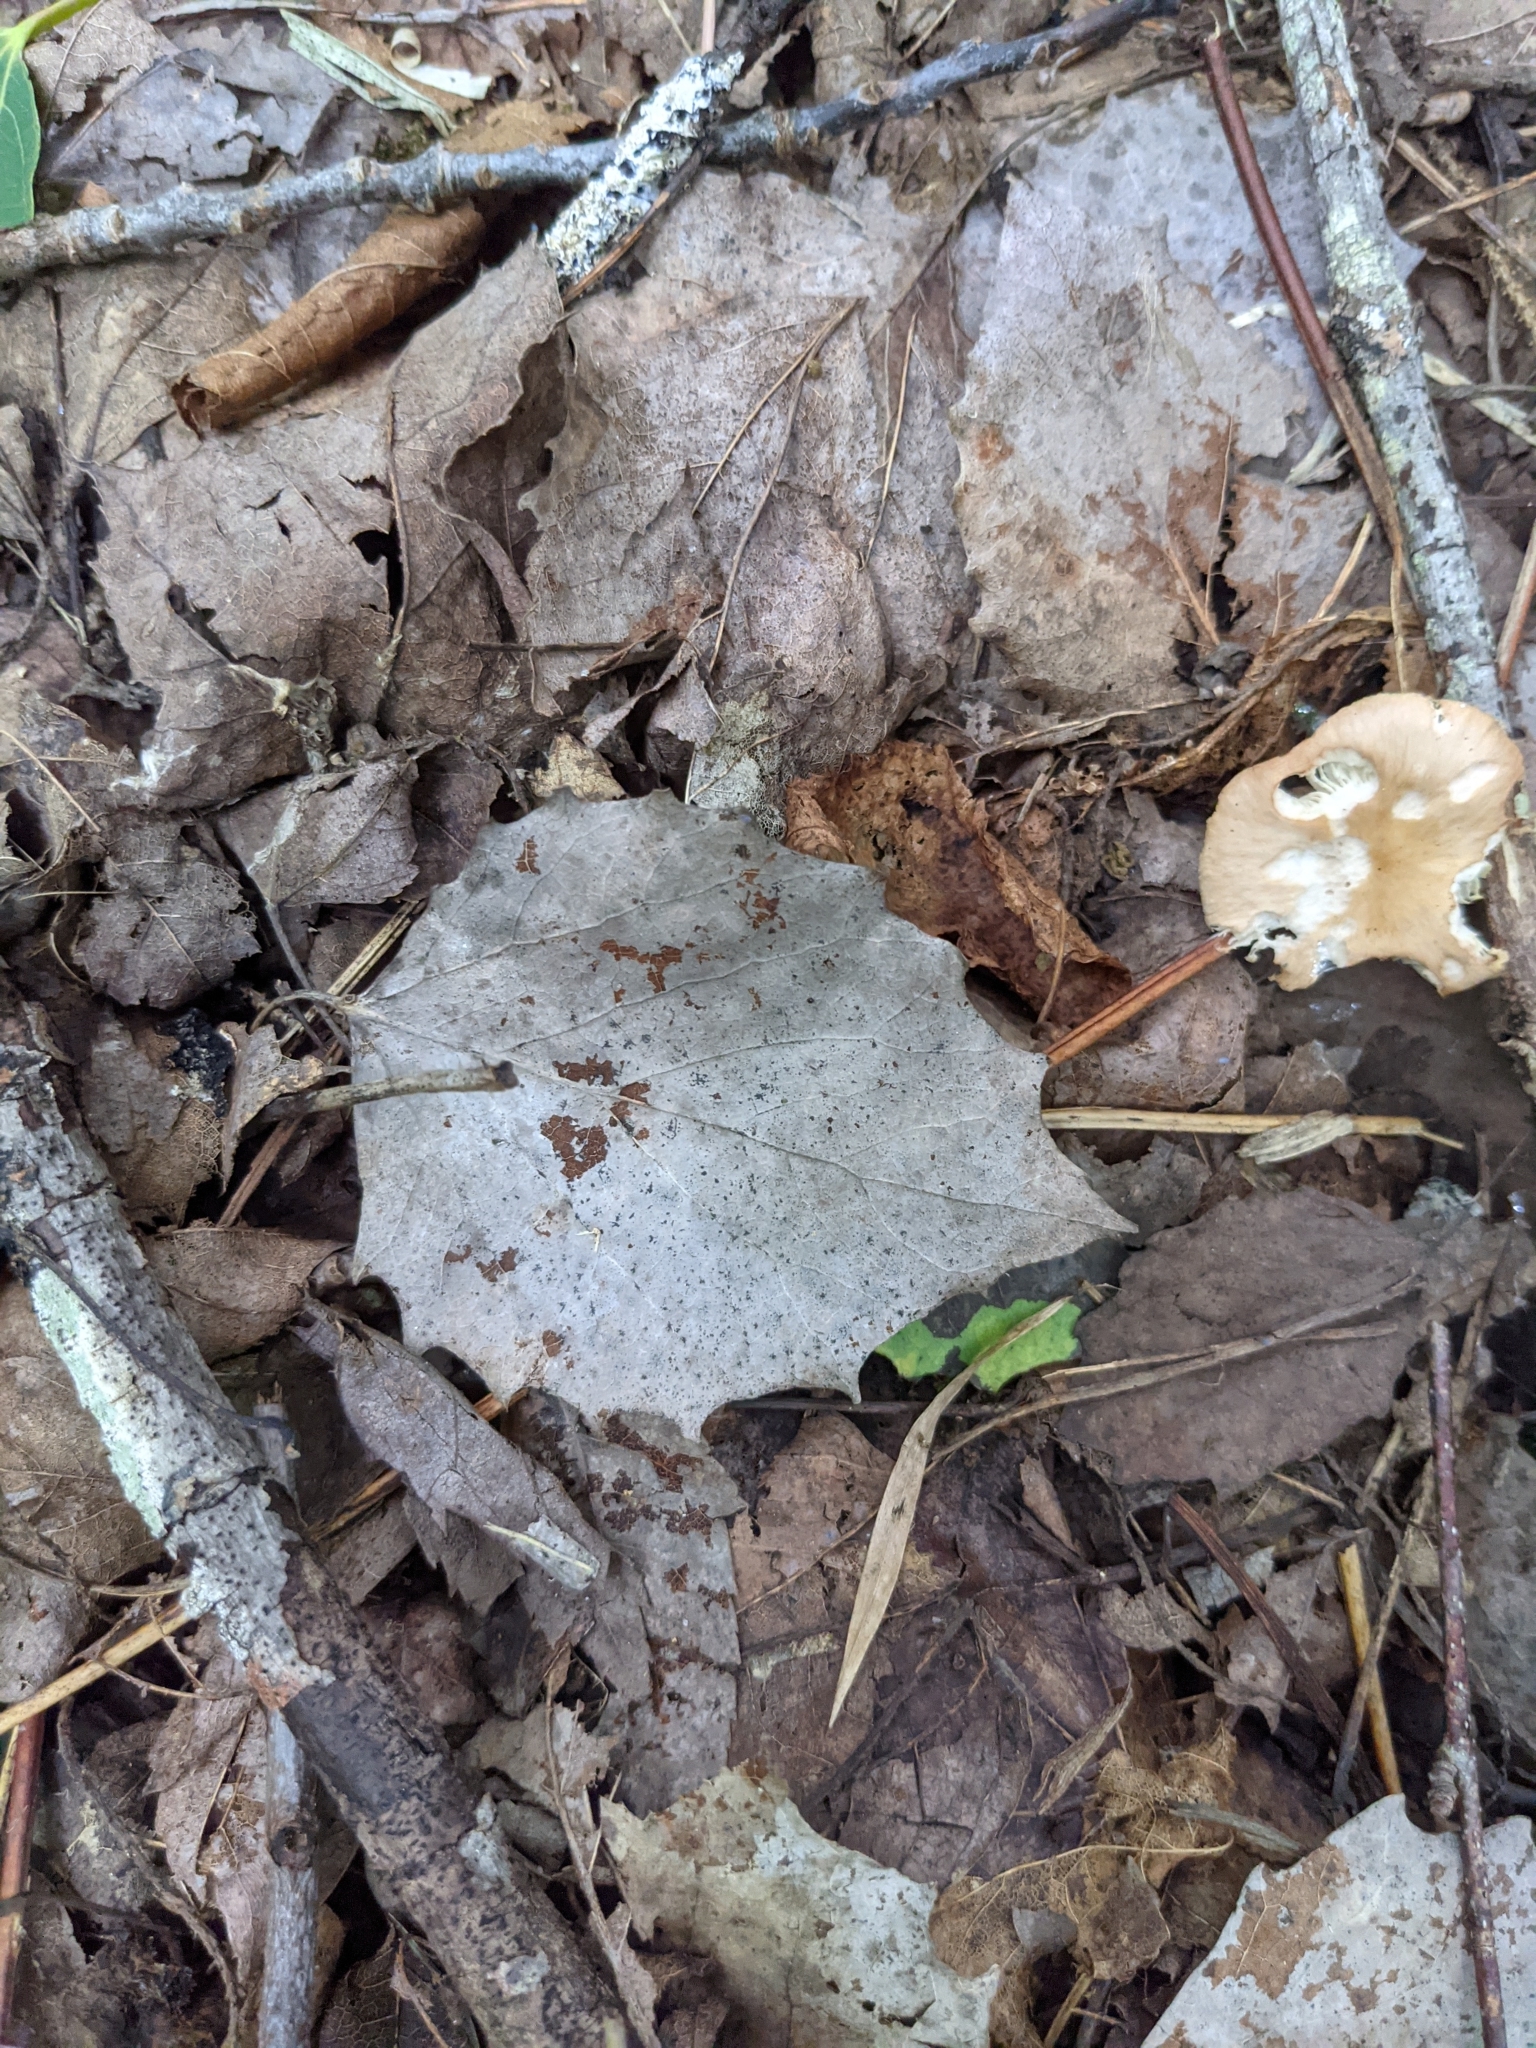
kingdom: Plantae
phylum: Tracheophyta
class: Magnoliopsida
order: Malpighiales
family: Salicaceae
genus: Populus
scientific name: Populus grandidentata
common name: Bigtooth aspen
